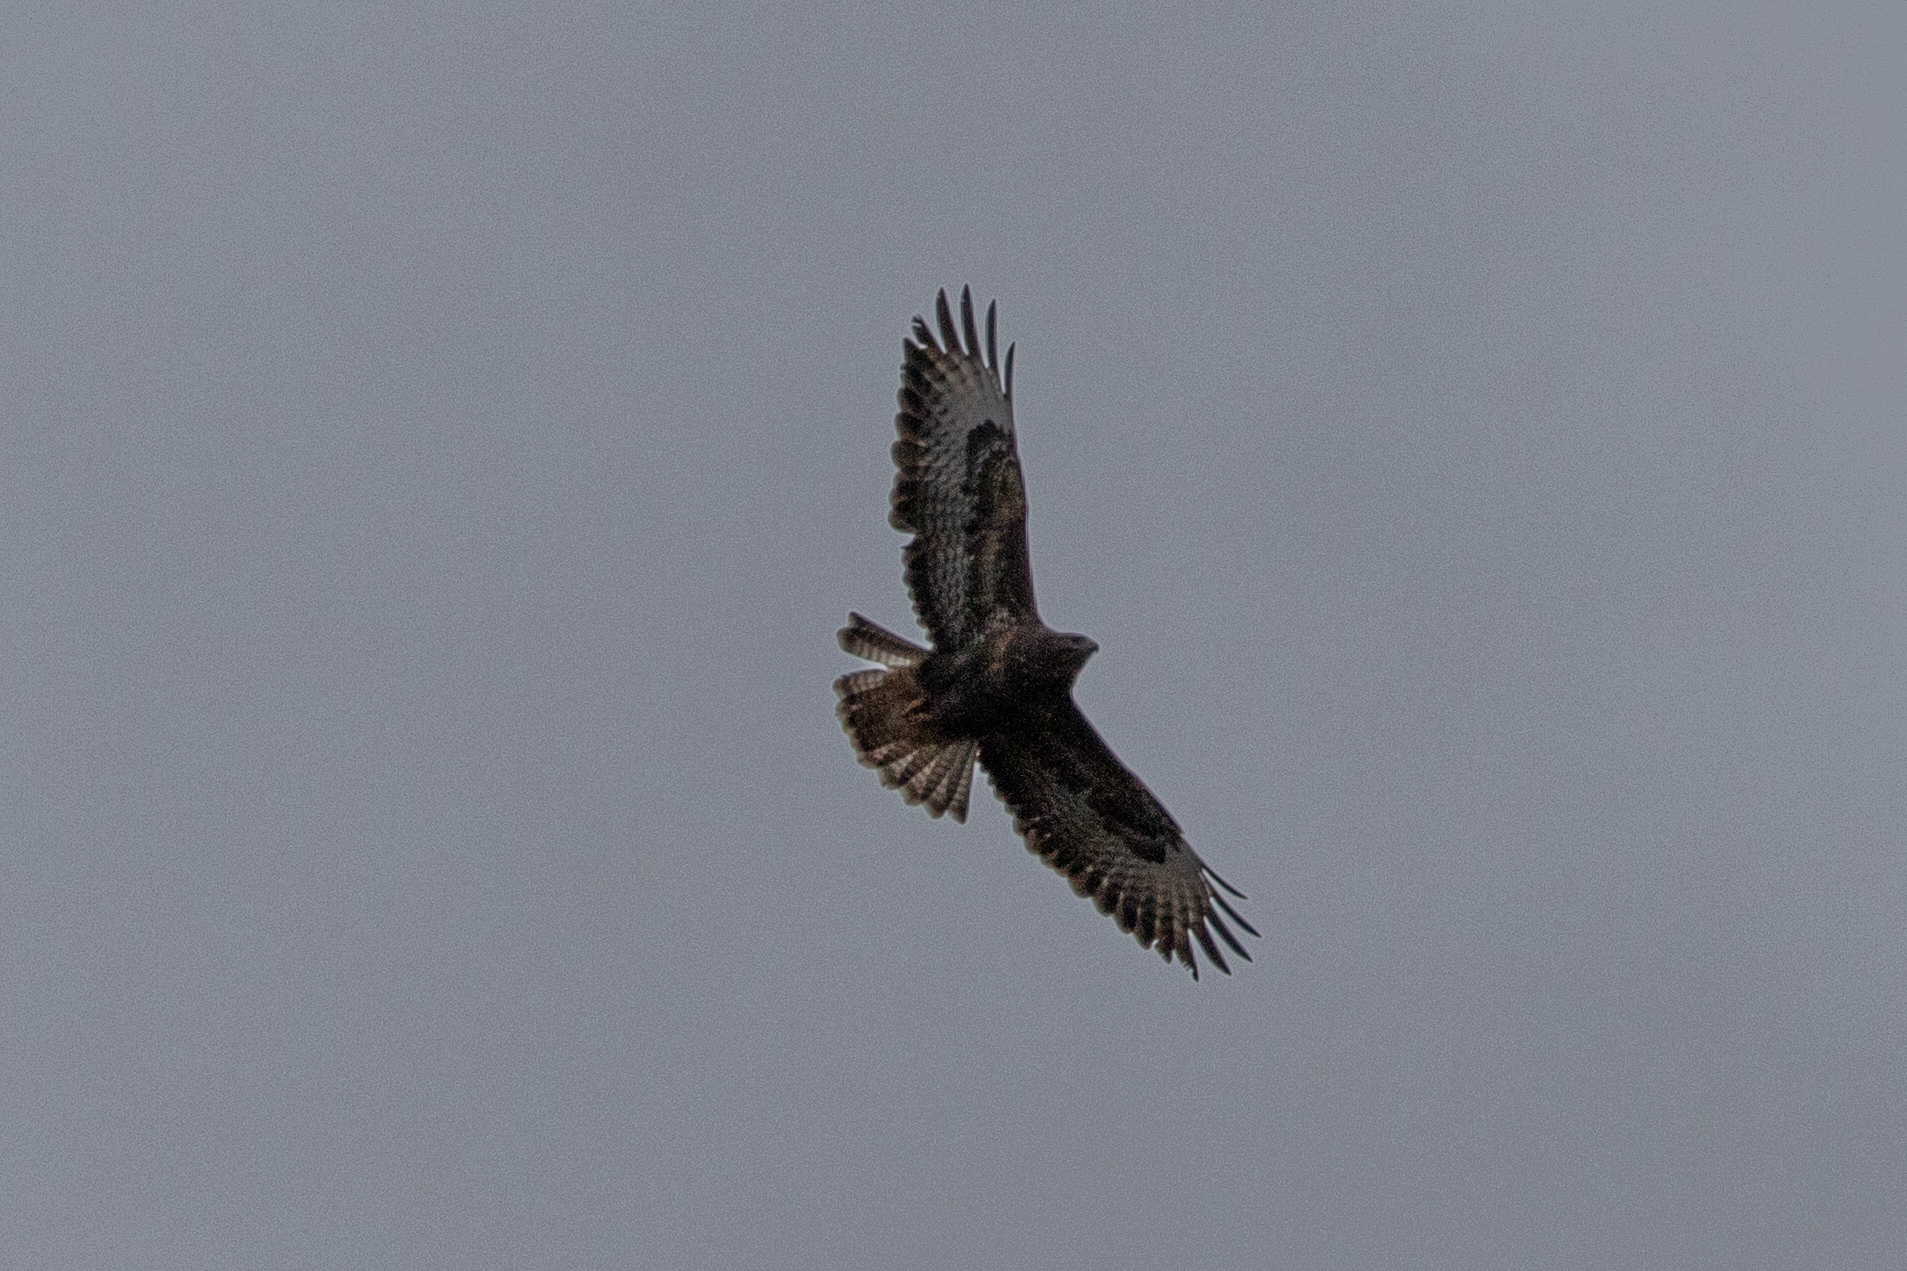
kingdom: Animalia
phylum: Chordata
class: Aves
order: Accipitriformes
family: Accipitridae
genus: Buteo
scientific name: Buteo buteo
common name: Common buzzard
